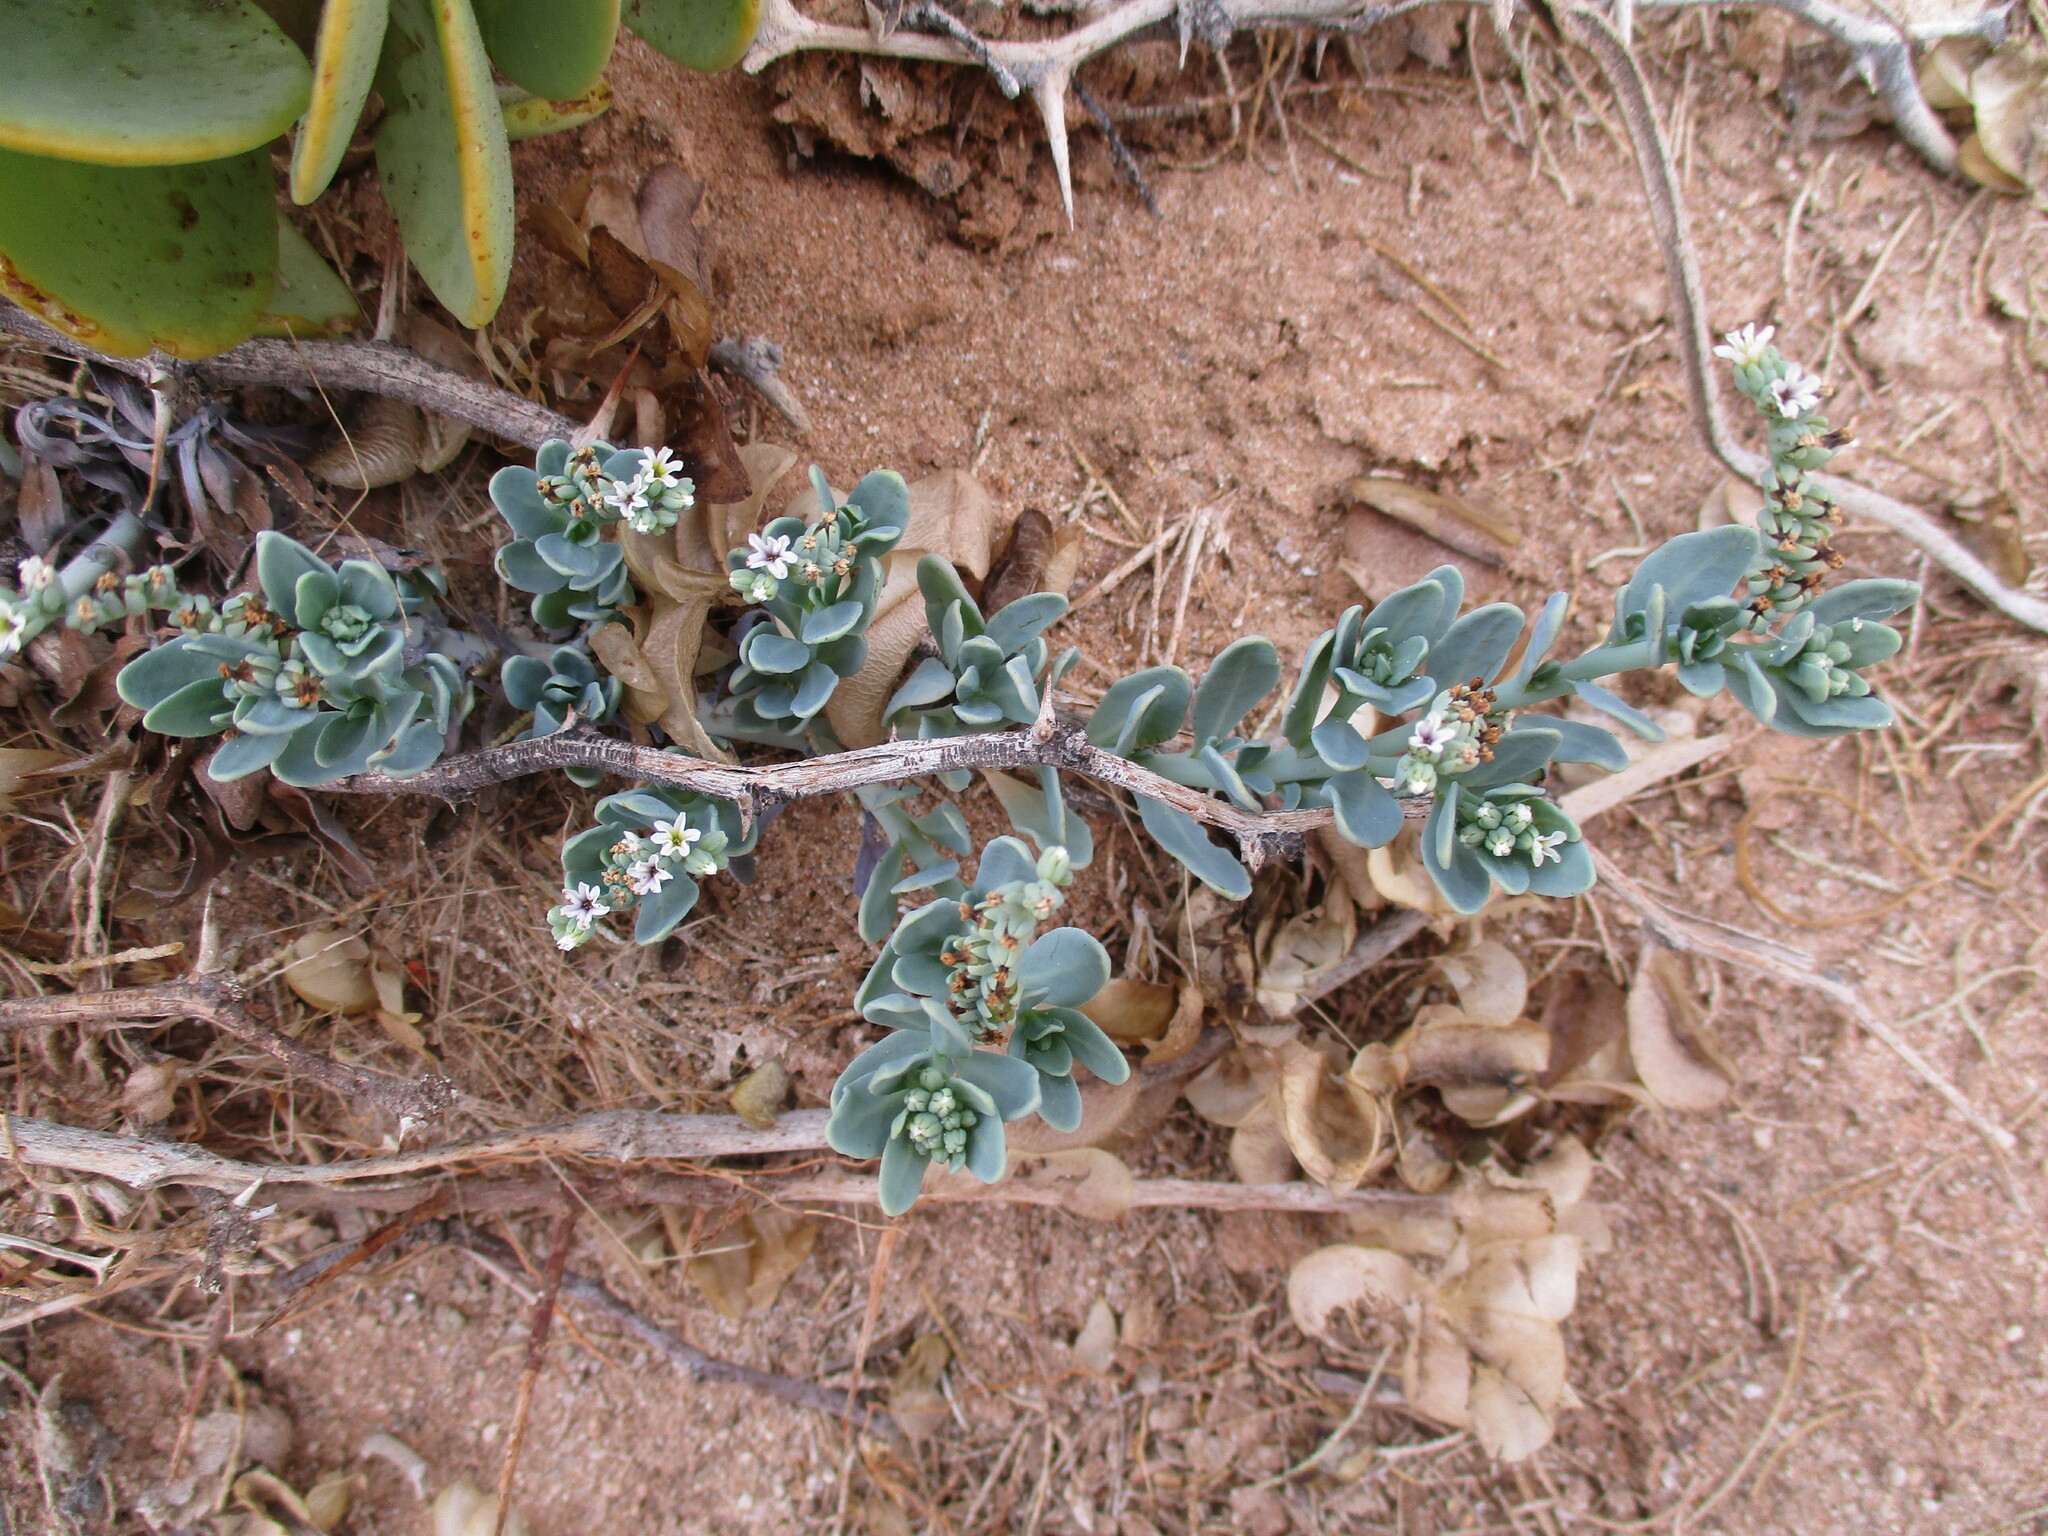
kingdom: Plantae
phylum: Tracheophyta
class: Magnoliopsida
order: Boraginales
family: Heliotropiaceae
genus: Heliotropium
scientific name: Heliotropium curassavicum
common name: Seaside heliotrope
